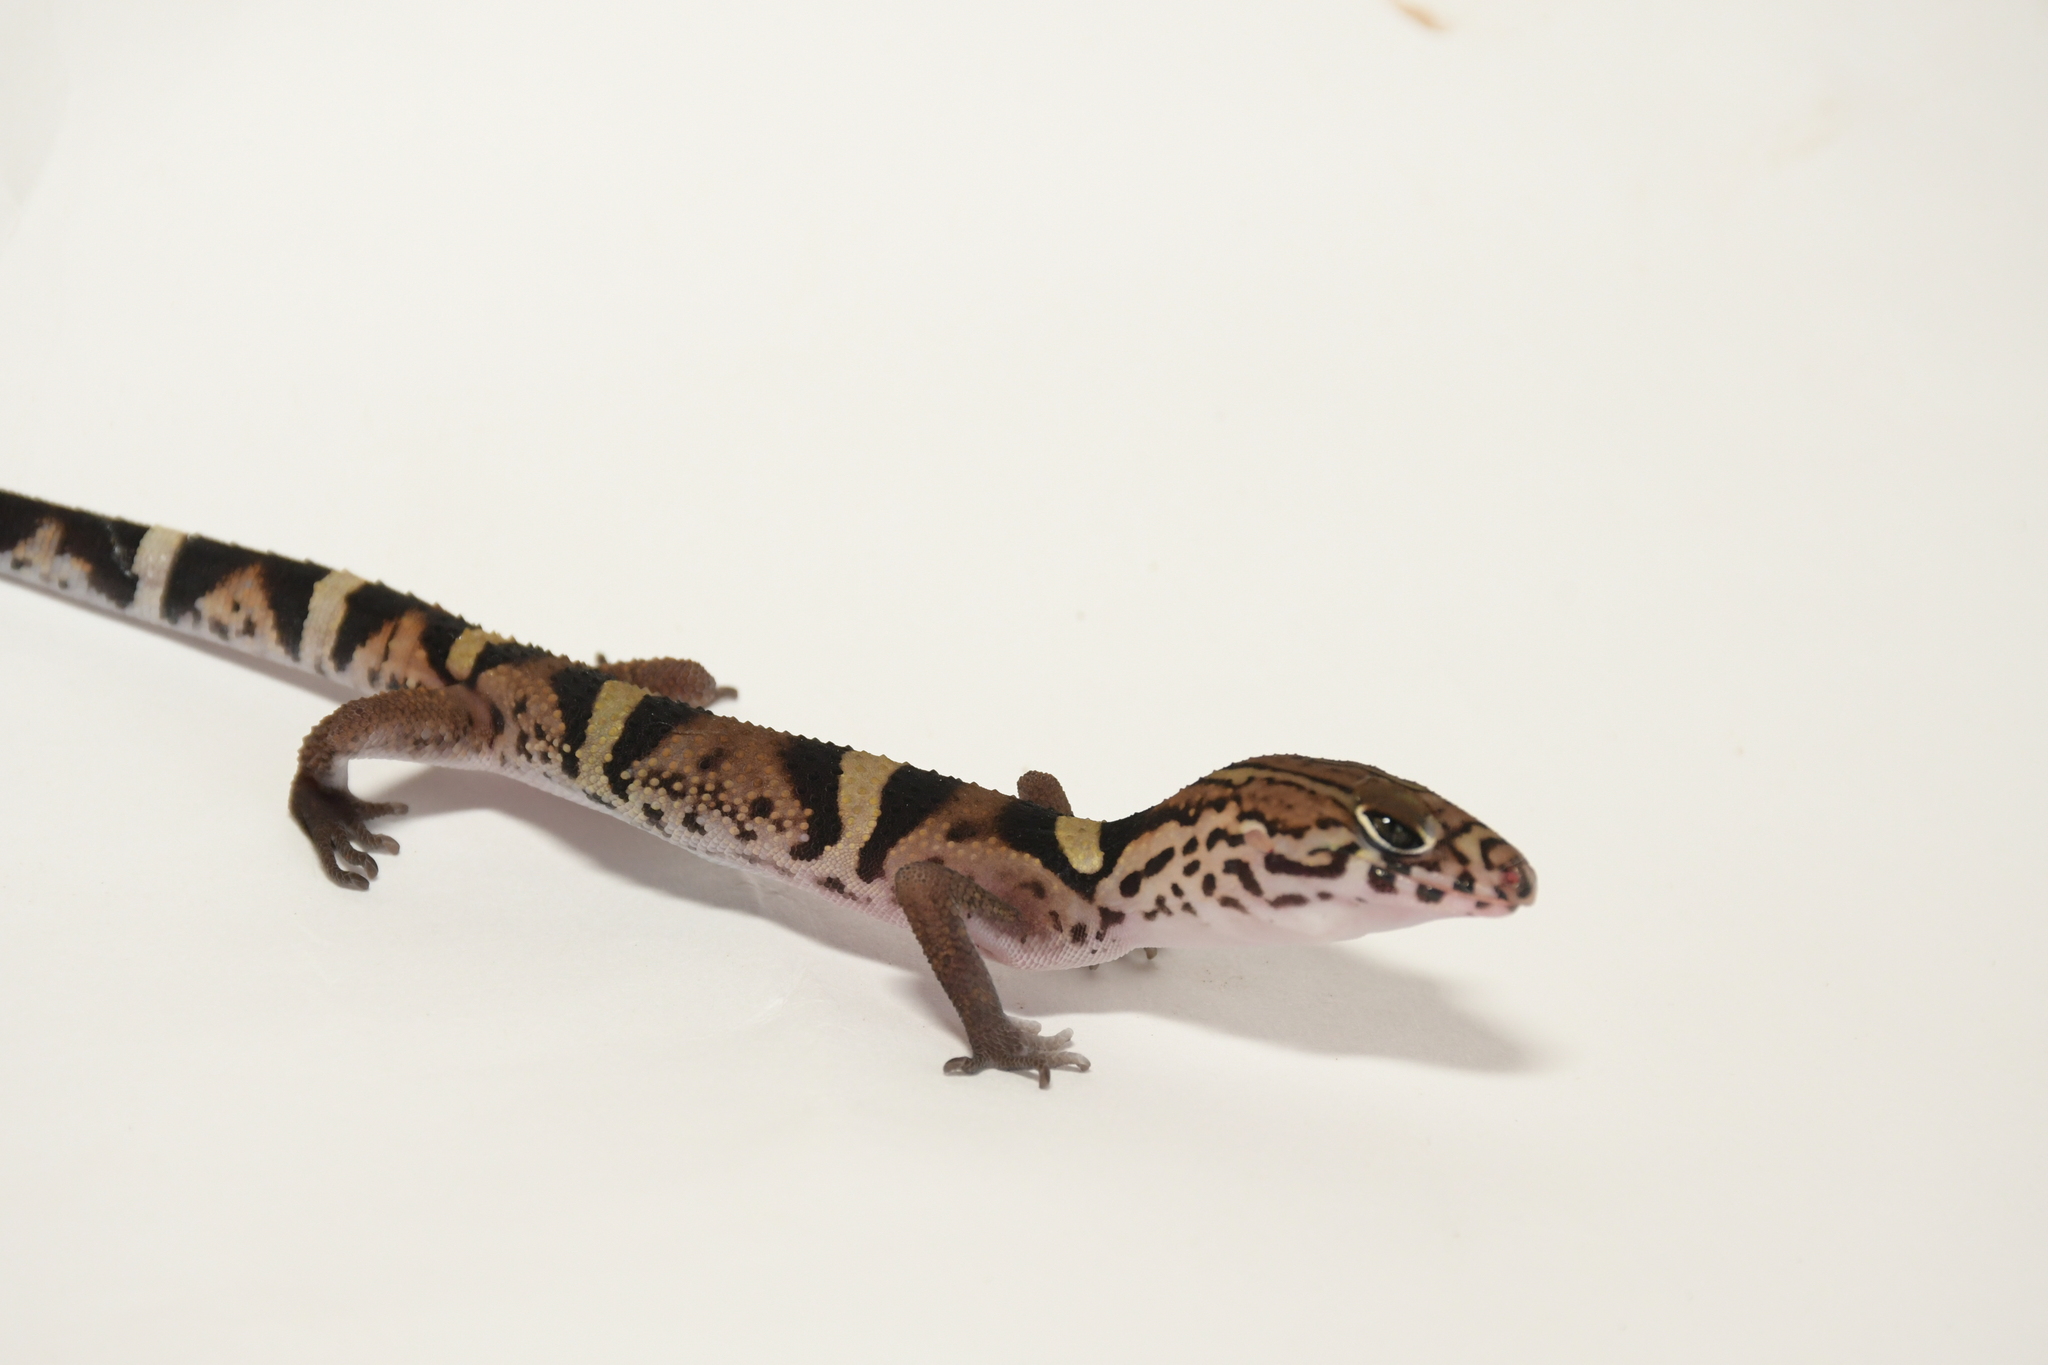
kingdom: Animalia
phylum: Chordata
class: Squamata
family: Eublepharidae
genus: Coleonyx
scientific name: Coleonyx
